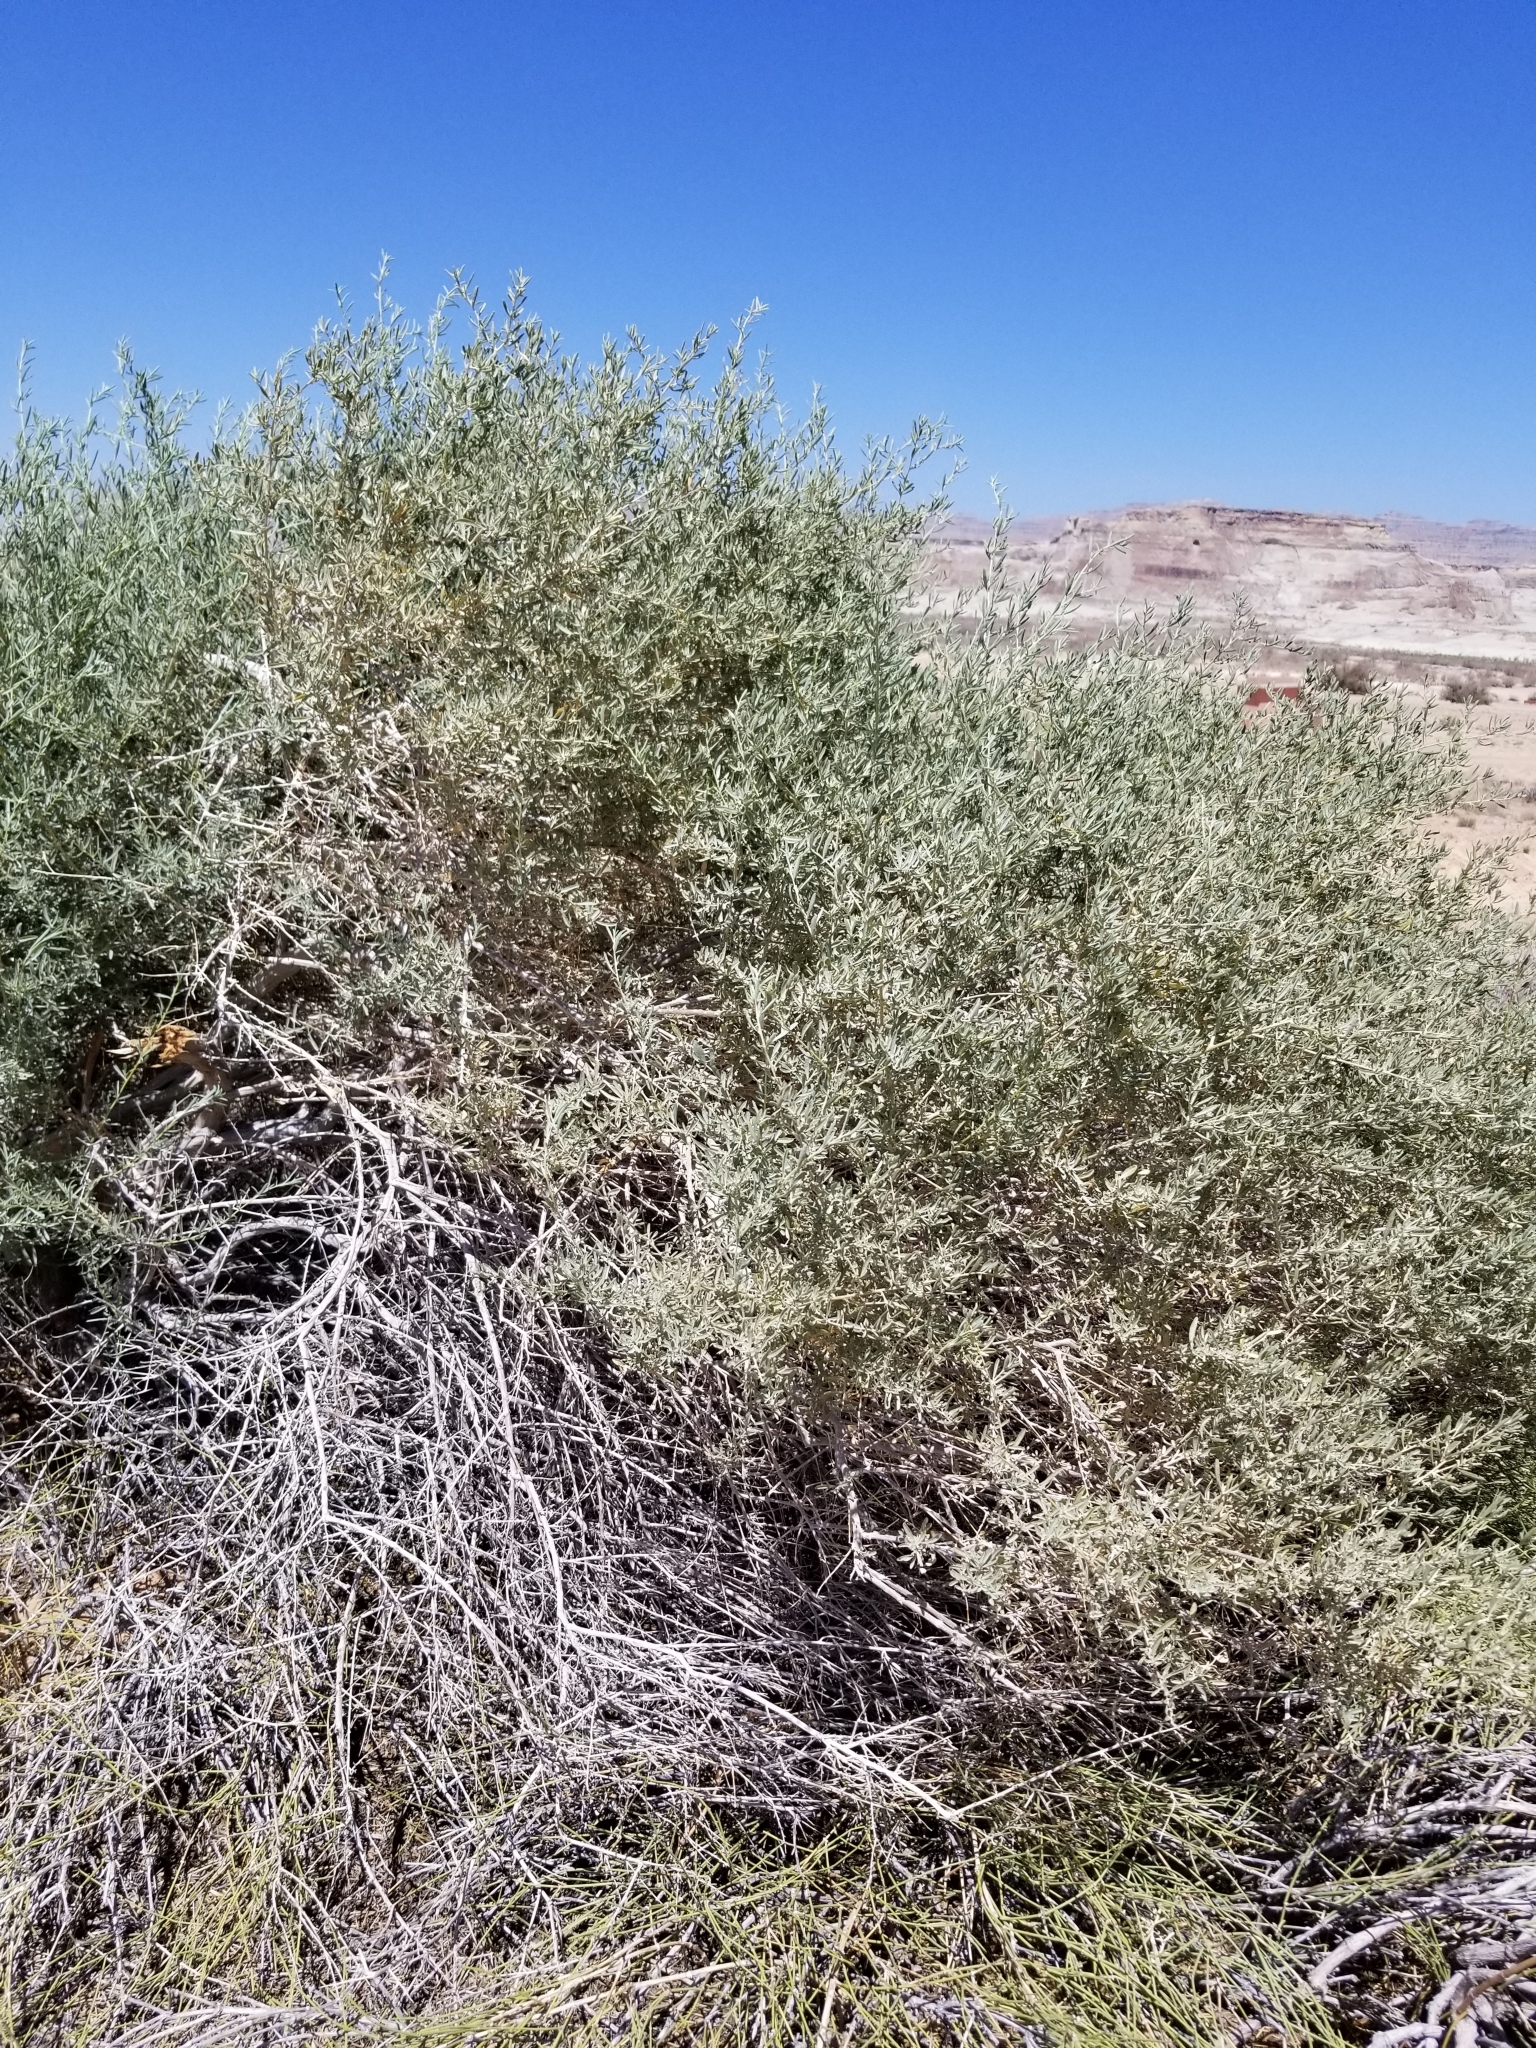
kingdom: Plantae
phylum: Tracheophyta
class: Magnoliopsida
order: Caryophyllales
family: Amaranthaceae
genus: Atriplex
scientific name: Atriplex canescens
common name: Four-wing saltbush
